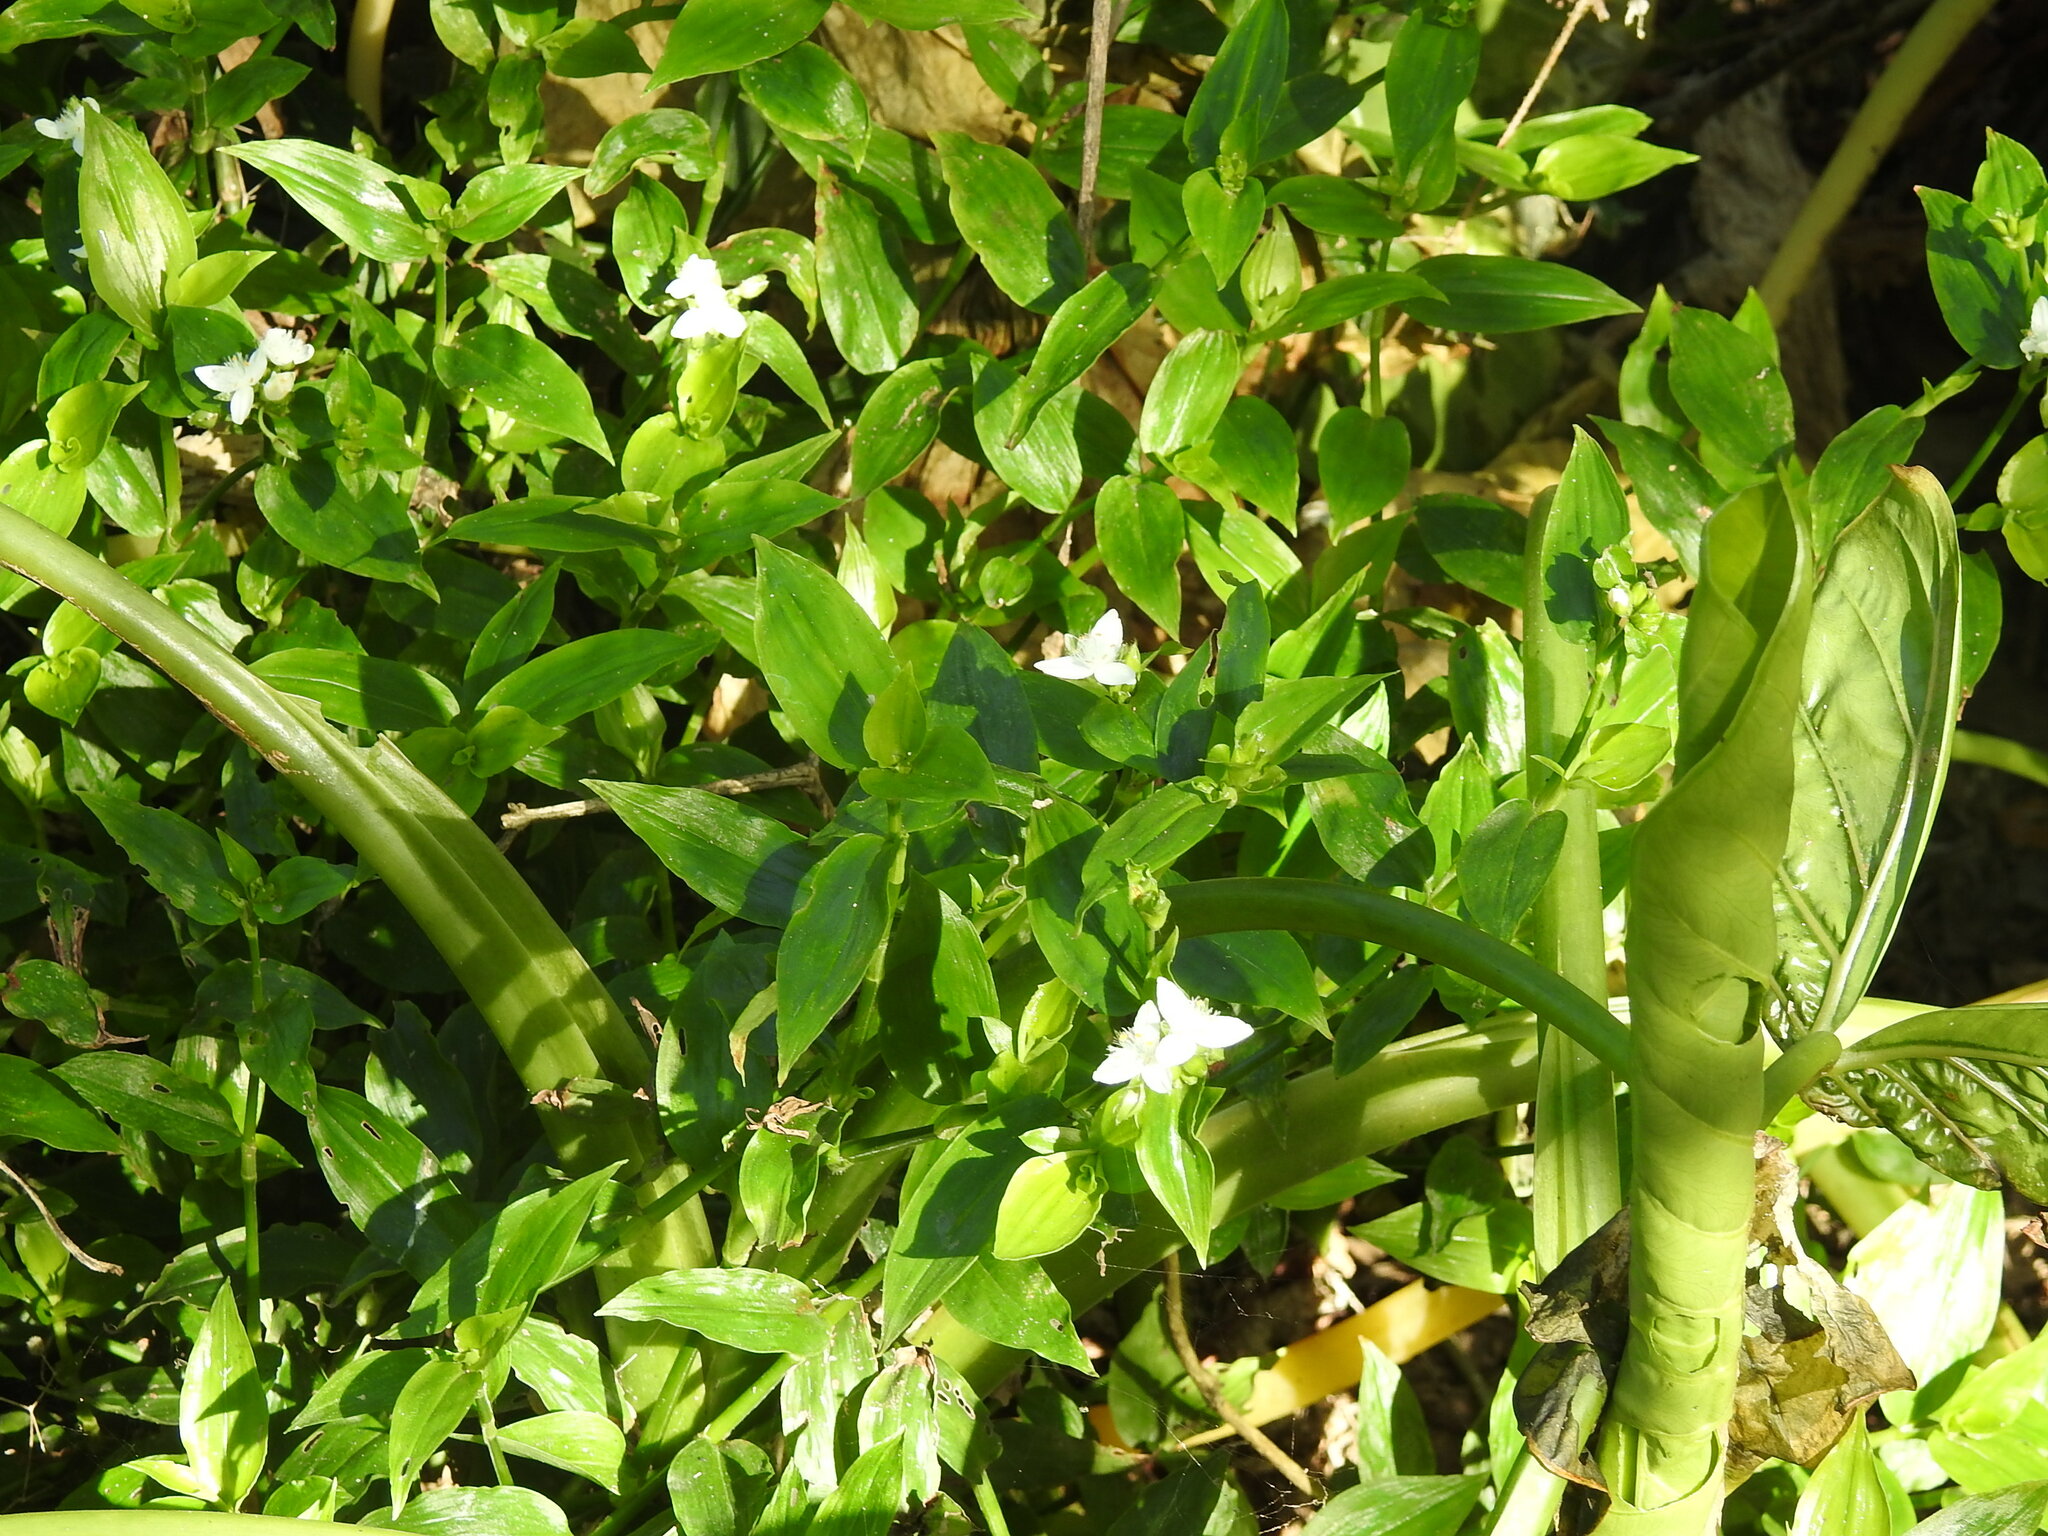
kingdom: Plantae
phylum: Tracheophyta
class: Liliopsida
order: Commelinales
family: Commelinaceae
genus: Tradescantia
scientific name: Tradescantia fluminensis
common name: Wandering-jew
